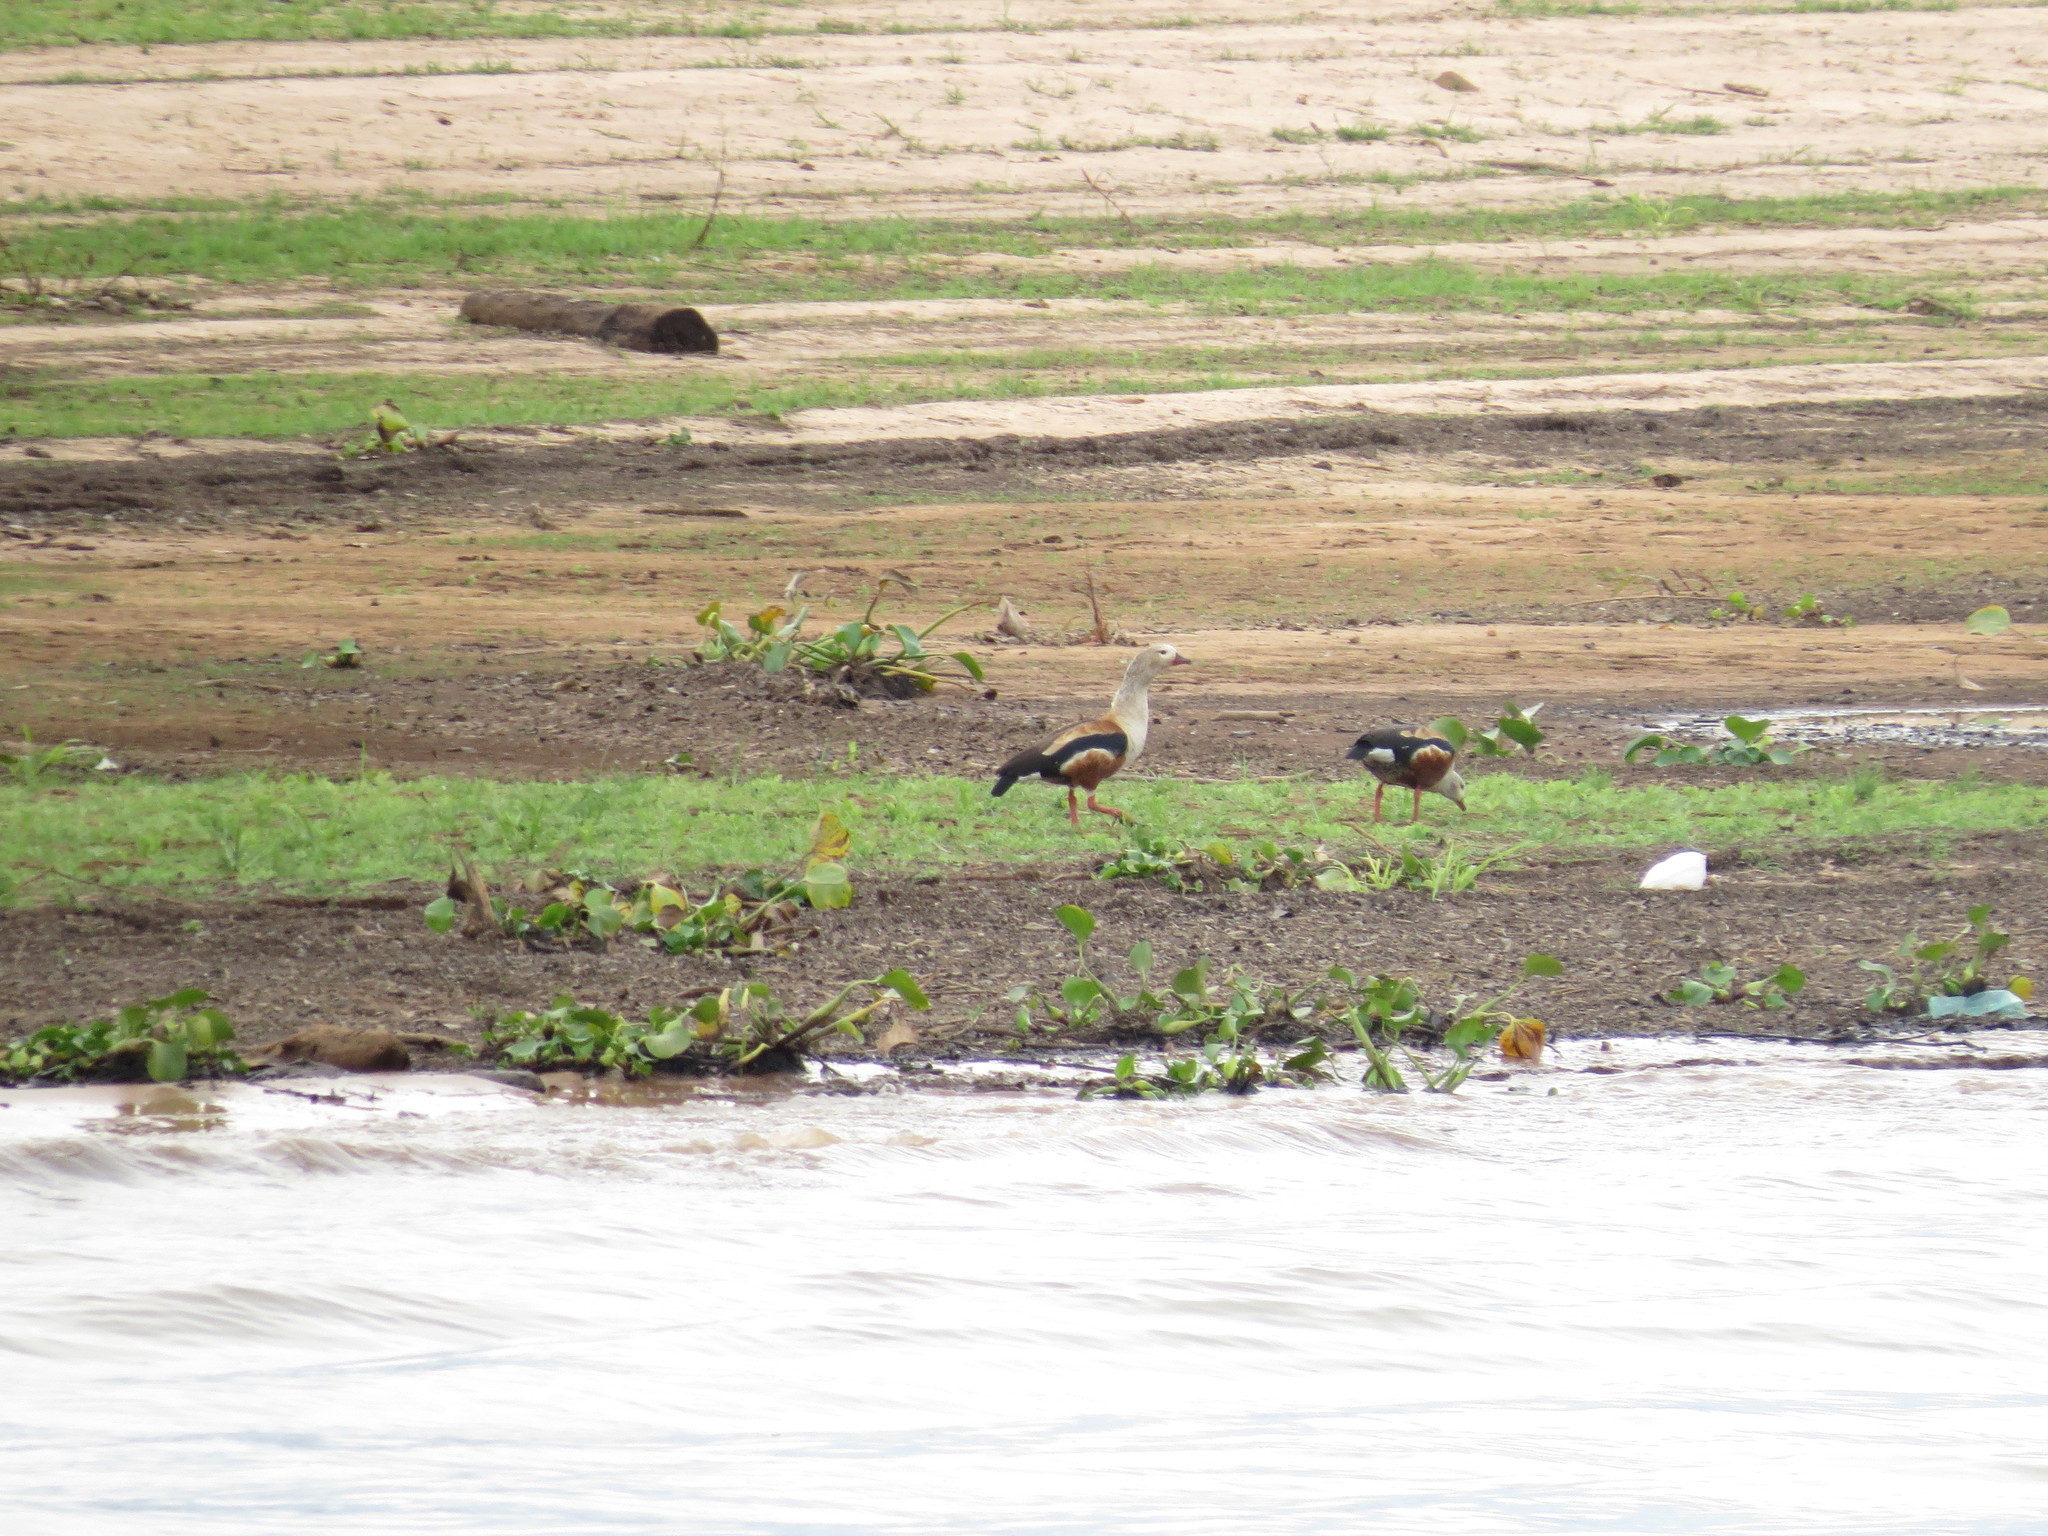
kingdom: Animalia
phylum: Chordata
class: Aves
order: Anseriformes
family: Anatidae
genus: Oressochen
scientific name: Oressochen jubatus
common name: Orinoco goose
